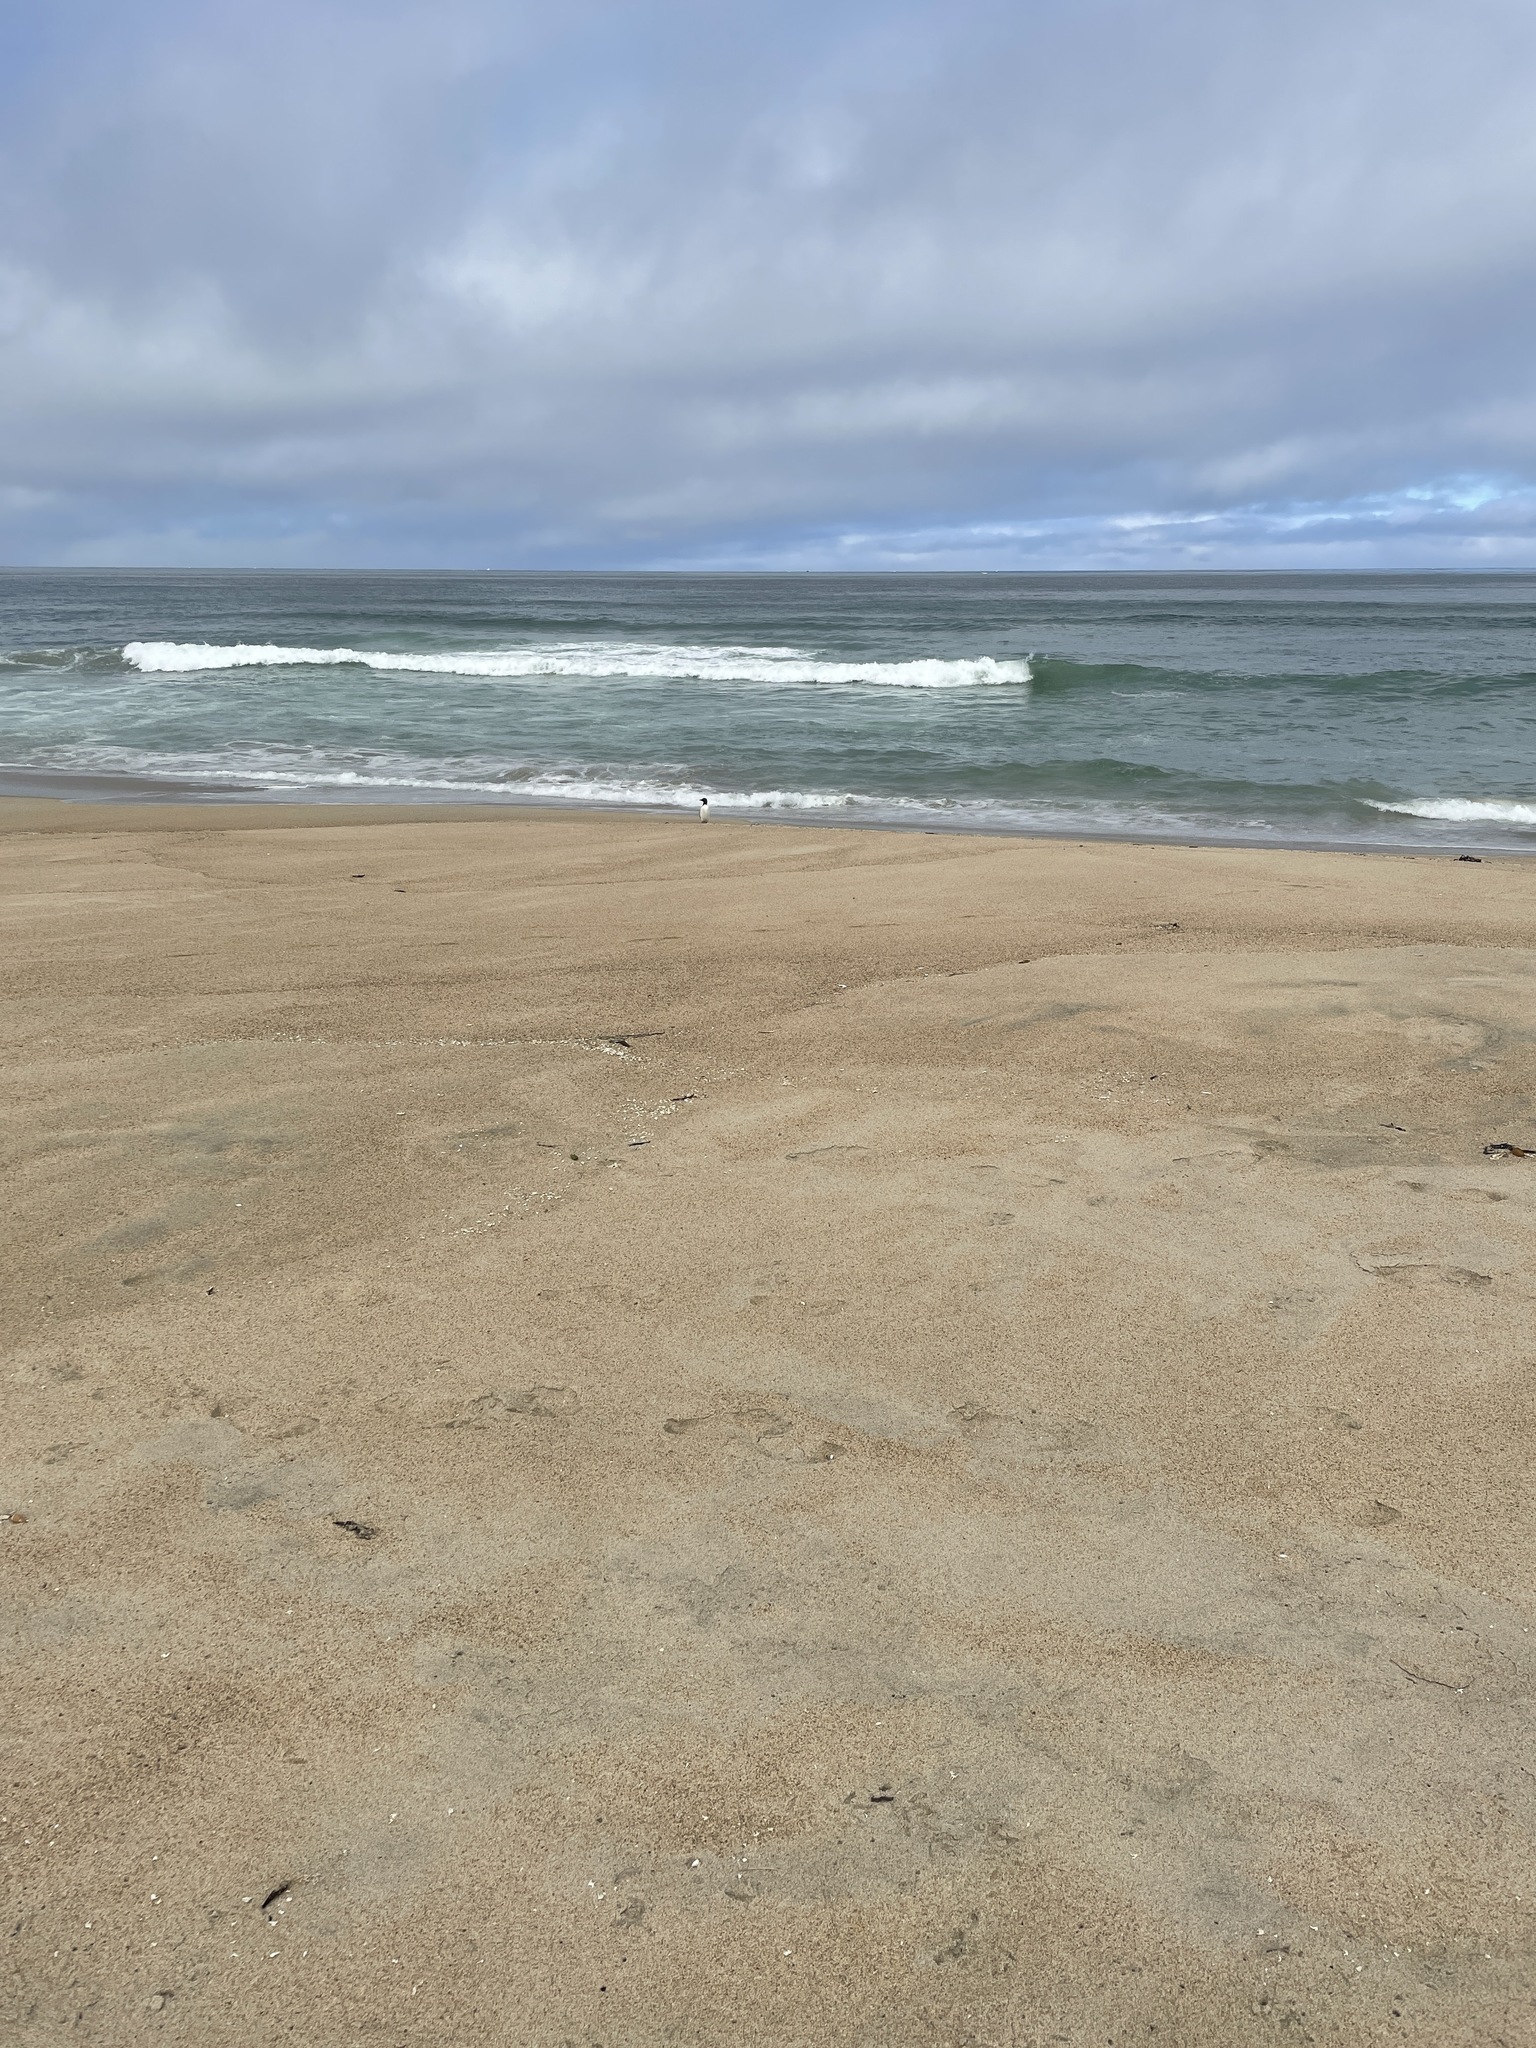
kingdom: Animalia
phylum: Chordata
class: Aves
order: Charadriiformes
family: Alcidae
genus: Uria
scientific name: Uria aalge
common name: Common murre
